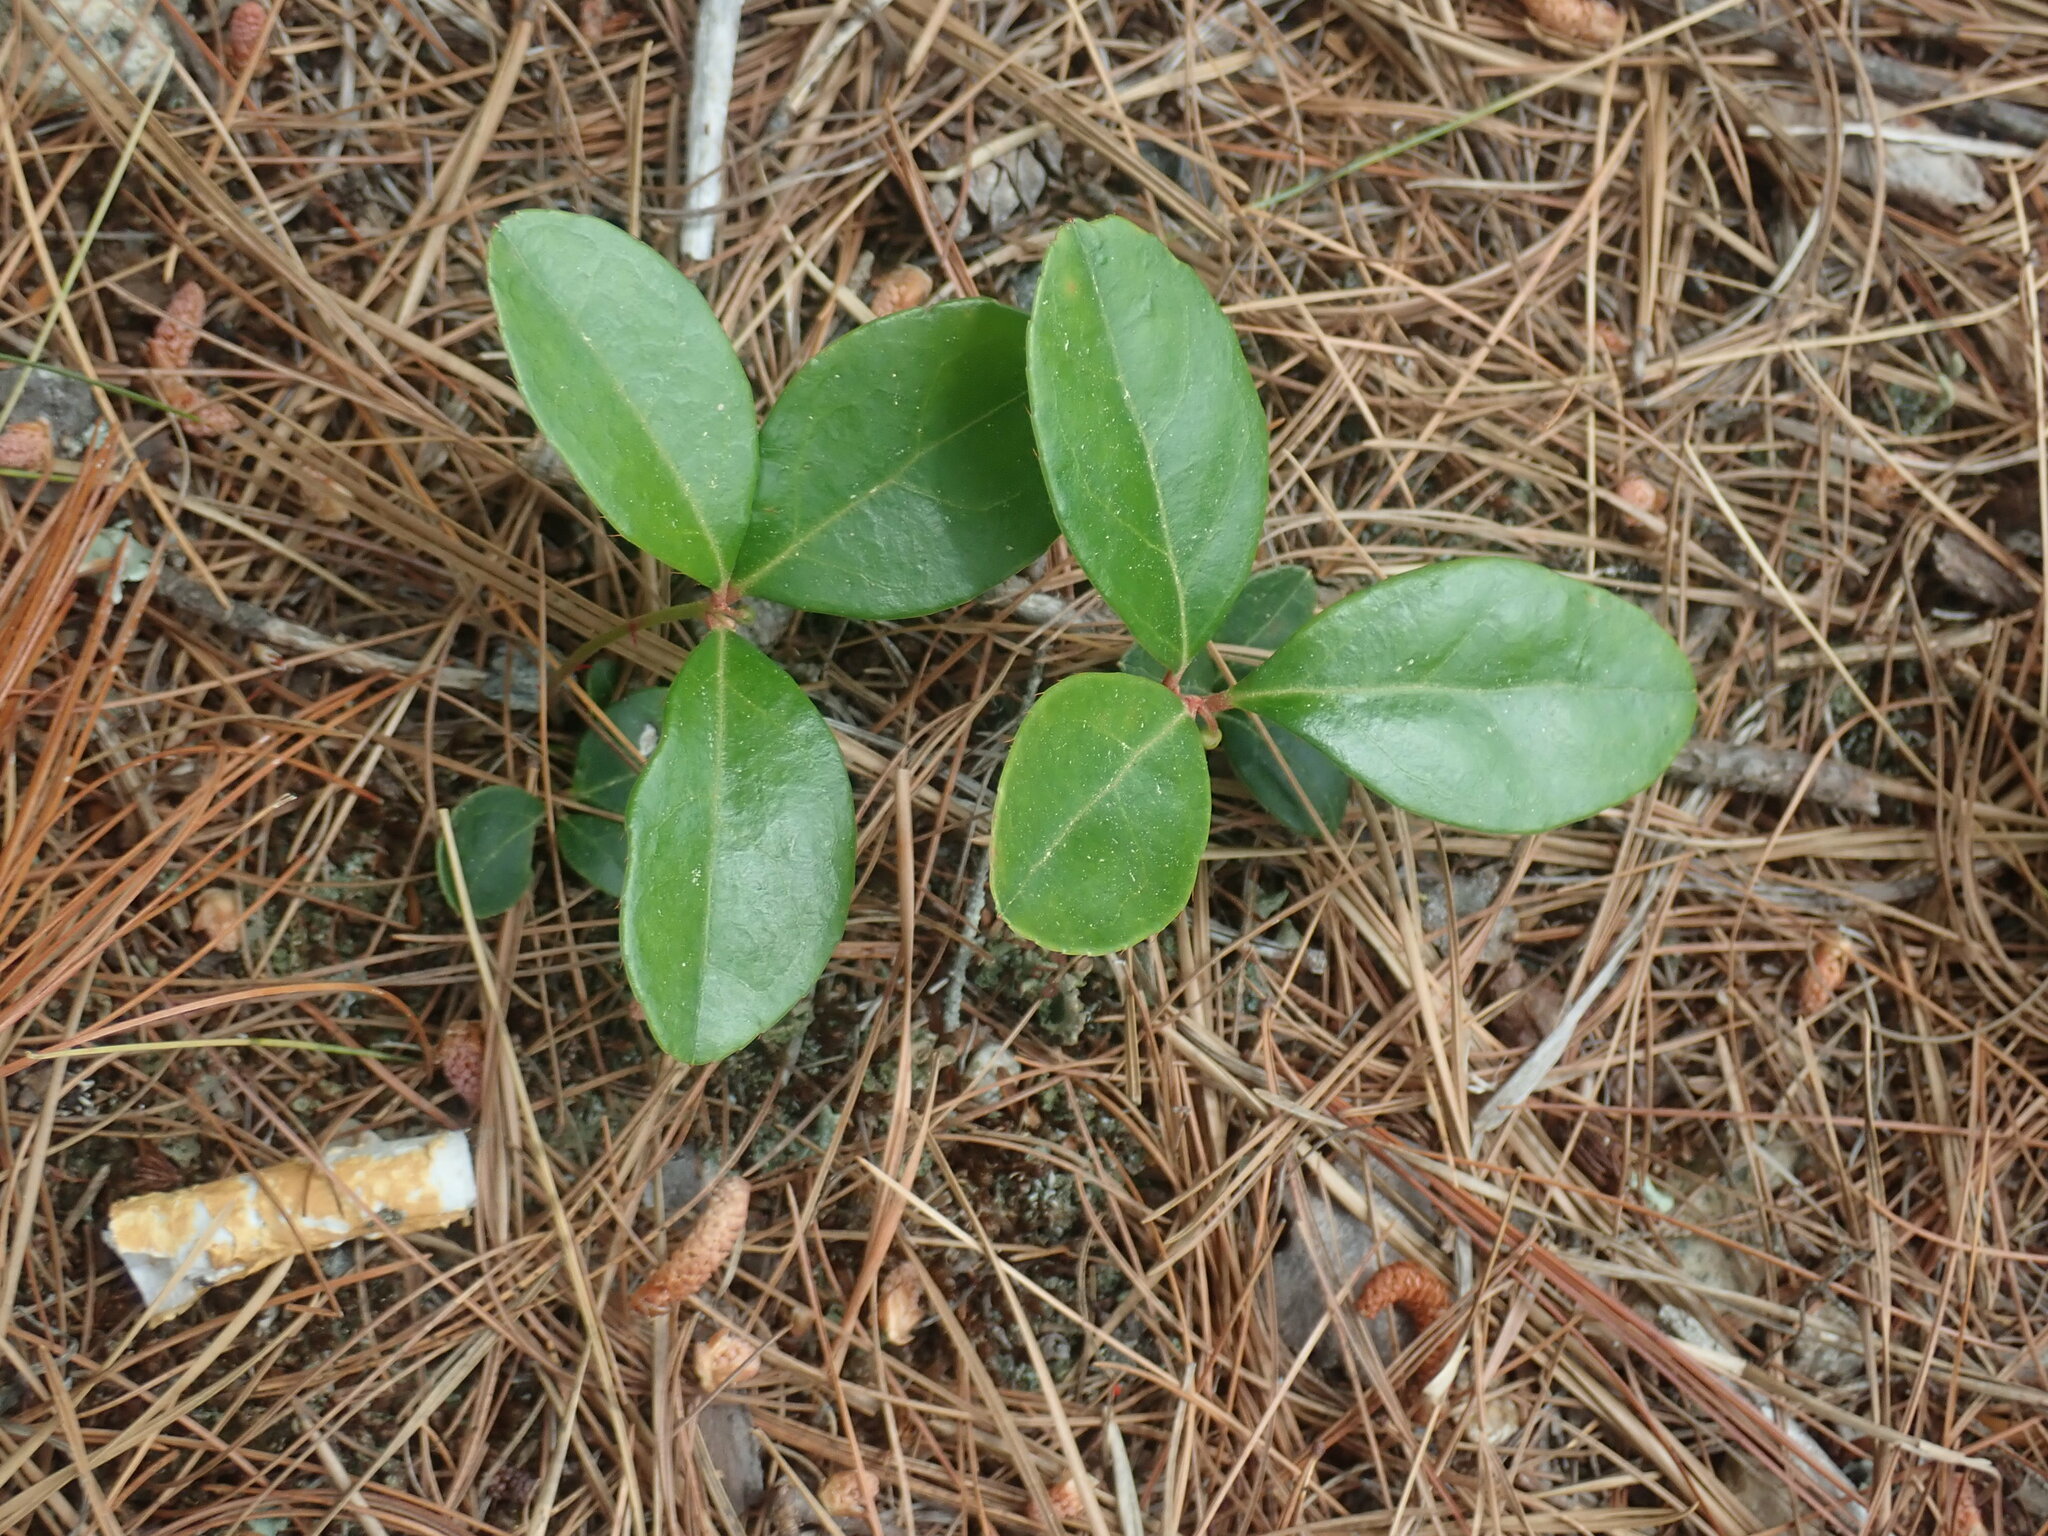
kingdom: Plantae
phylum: Tracheophyta
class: Magnoliopsida
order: Ericales
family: Ericaceae
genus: Gaultheria
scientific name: Gaultheria procumbens
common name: Checkerberry
